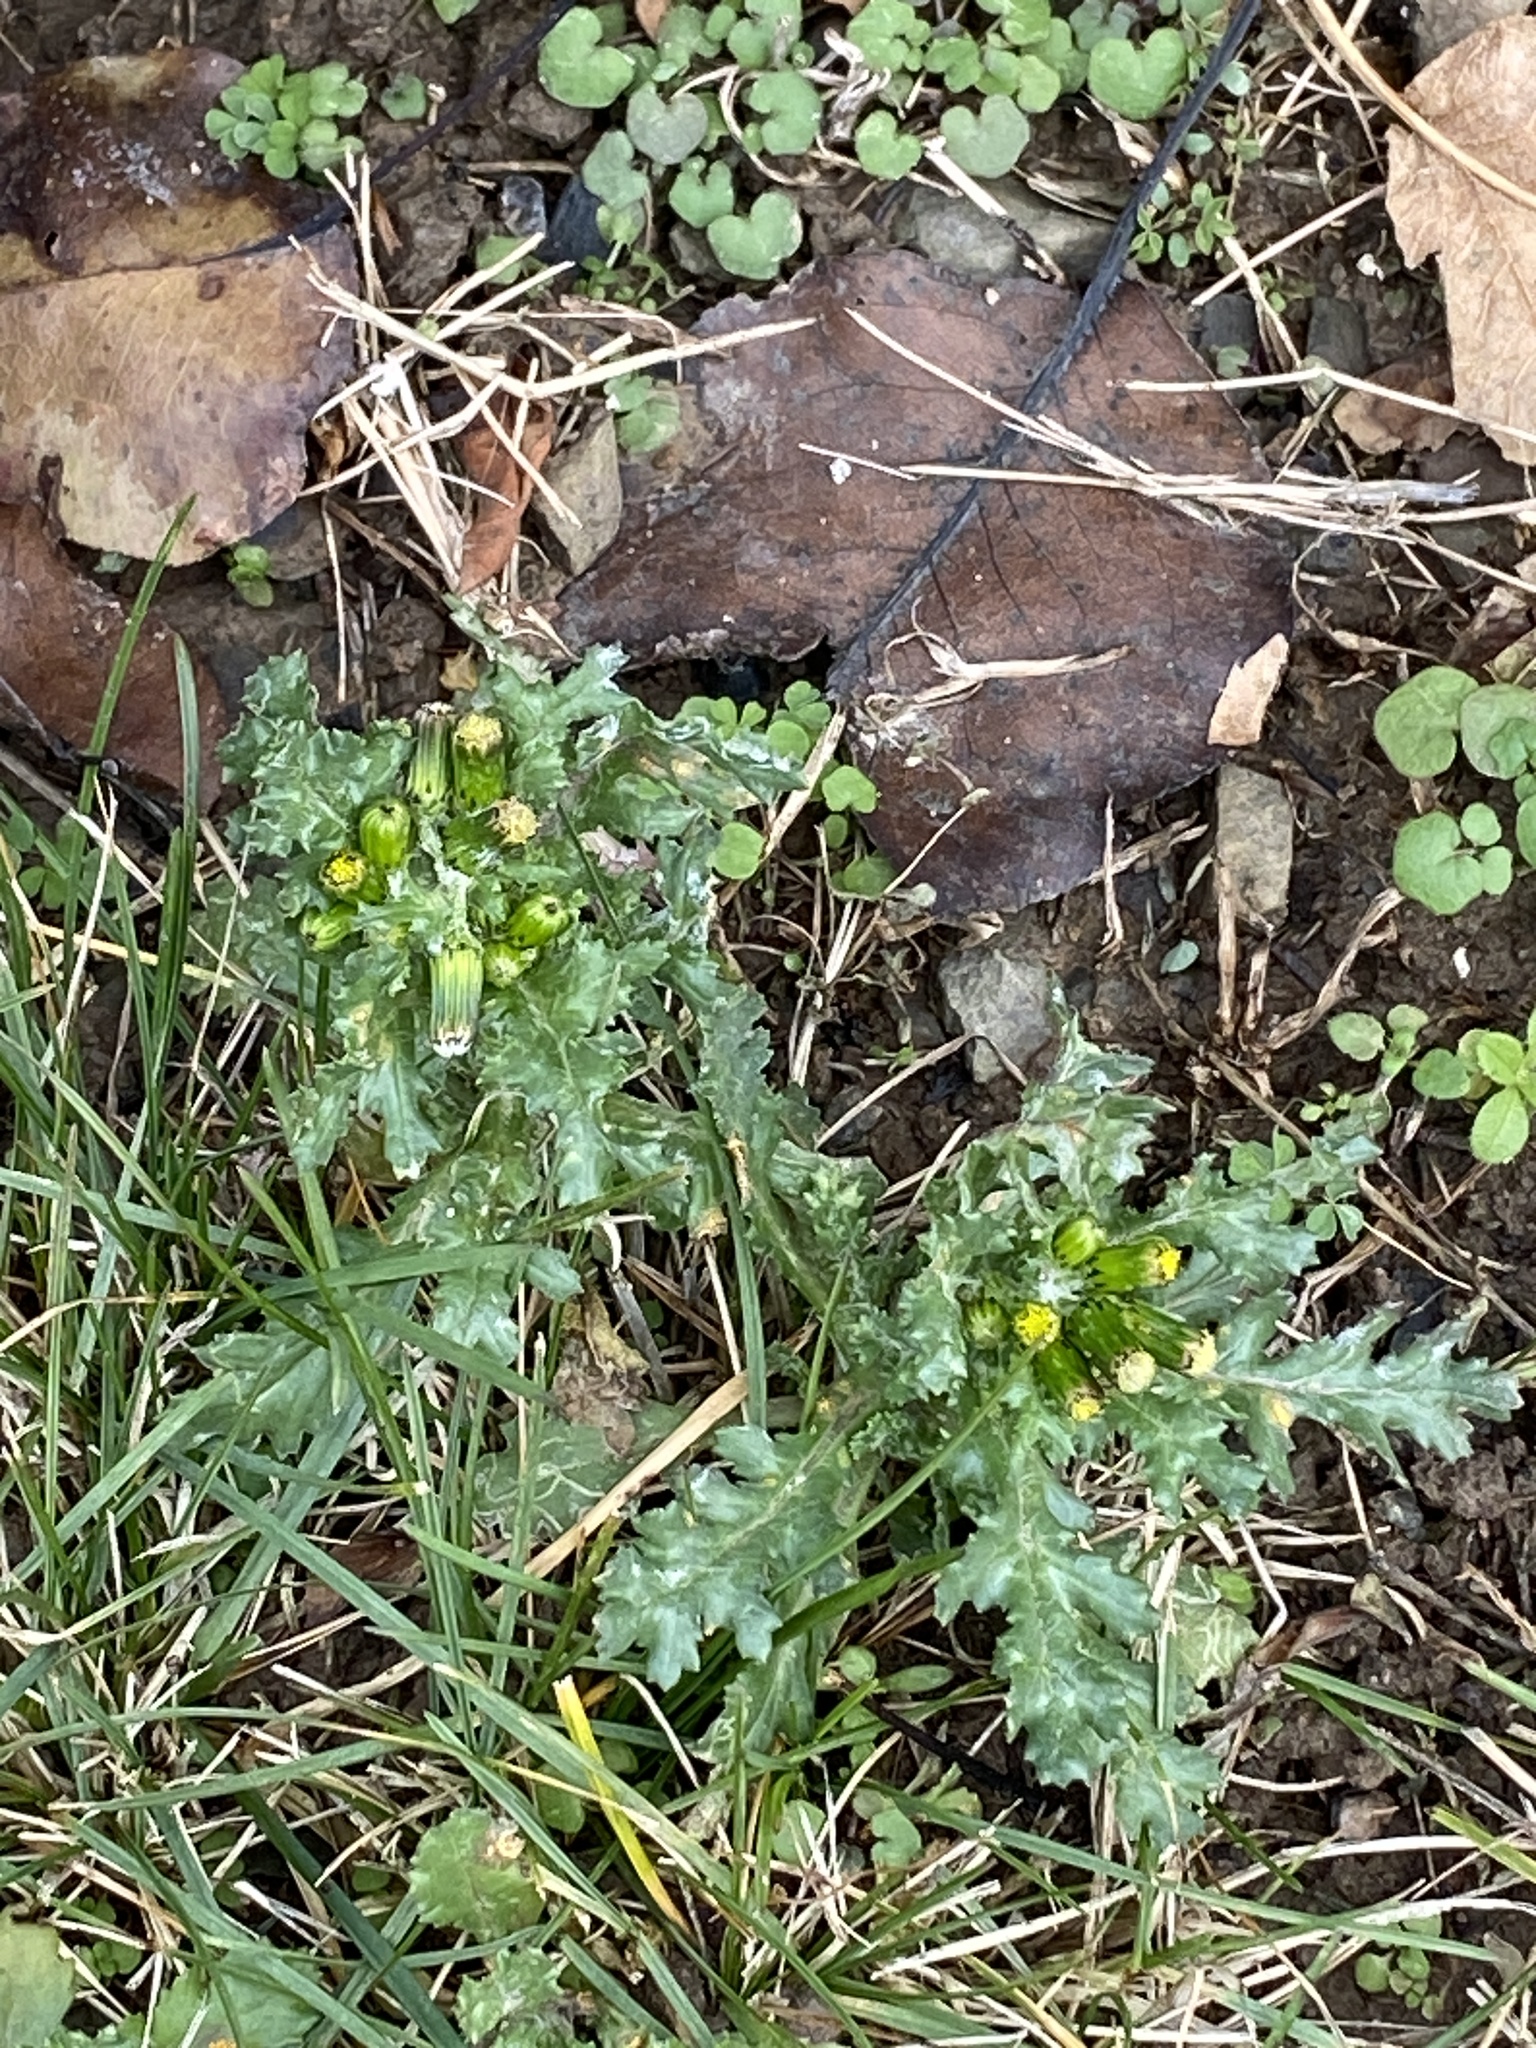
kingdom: Plantae
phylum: Tracheophyta
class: Magnoliopsida
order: Asterales
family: Asteraceae
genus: Senecio
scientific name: Senecio vulgaris
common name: Old-man-in-the-spring
